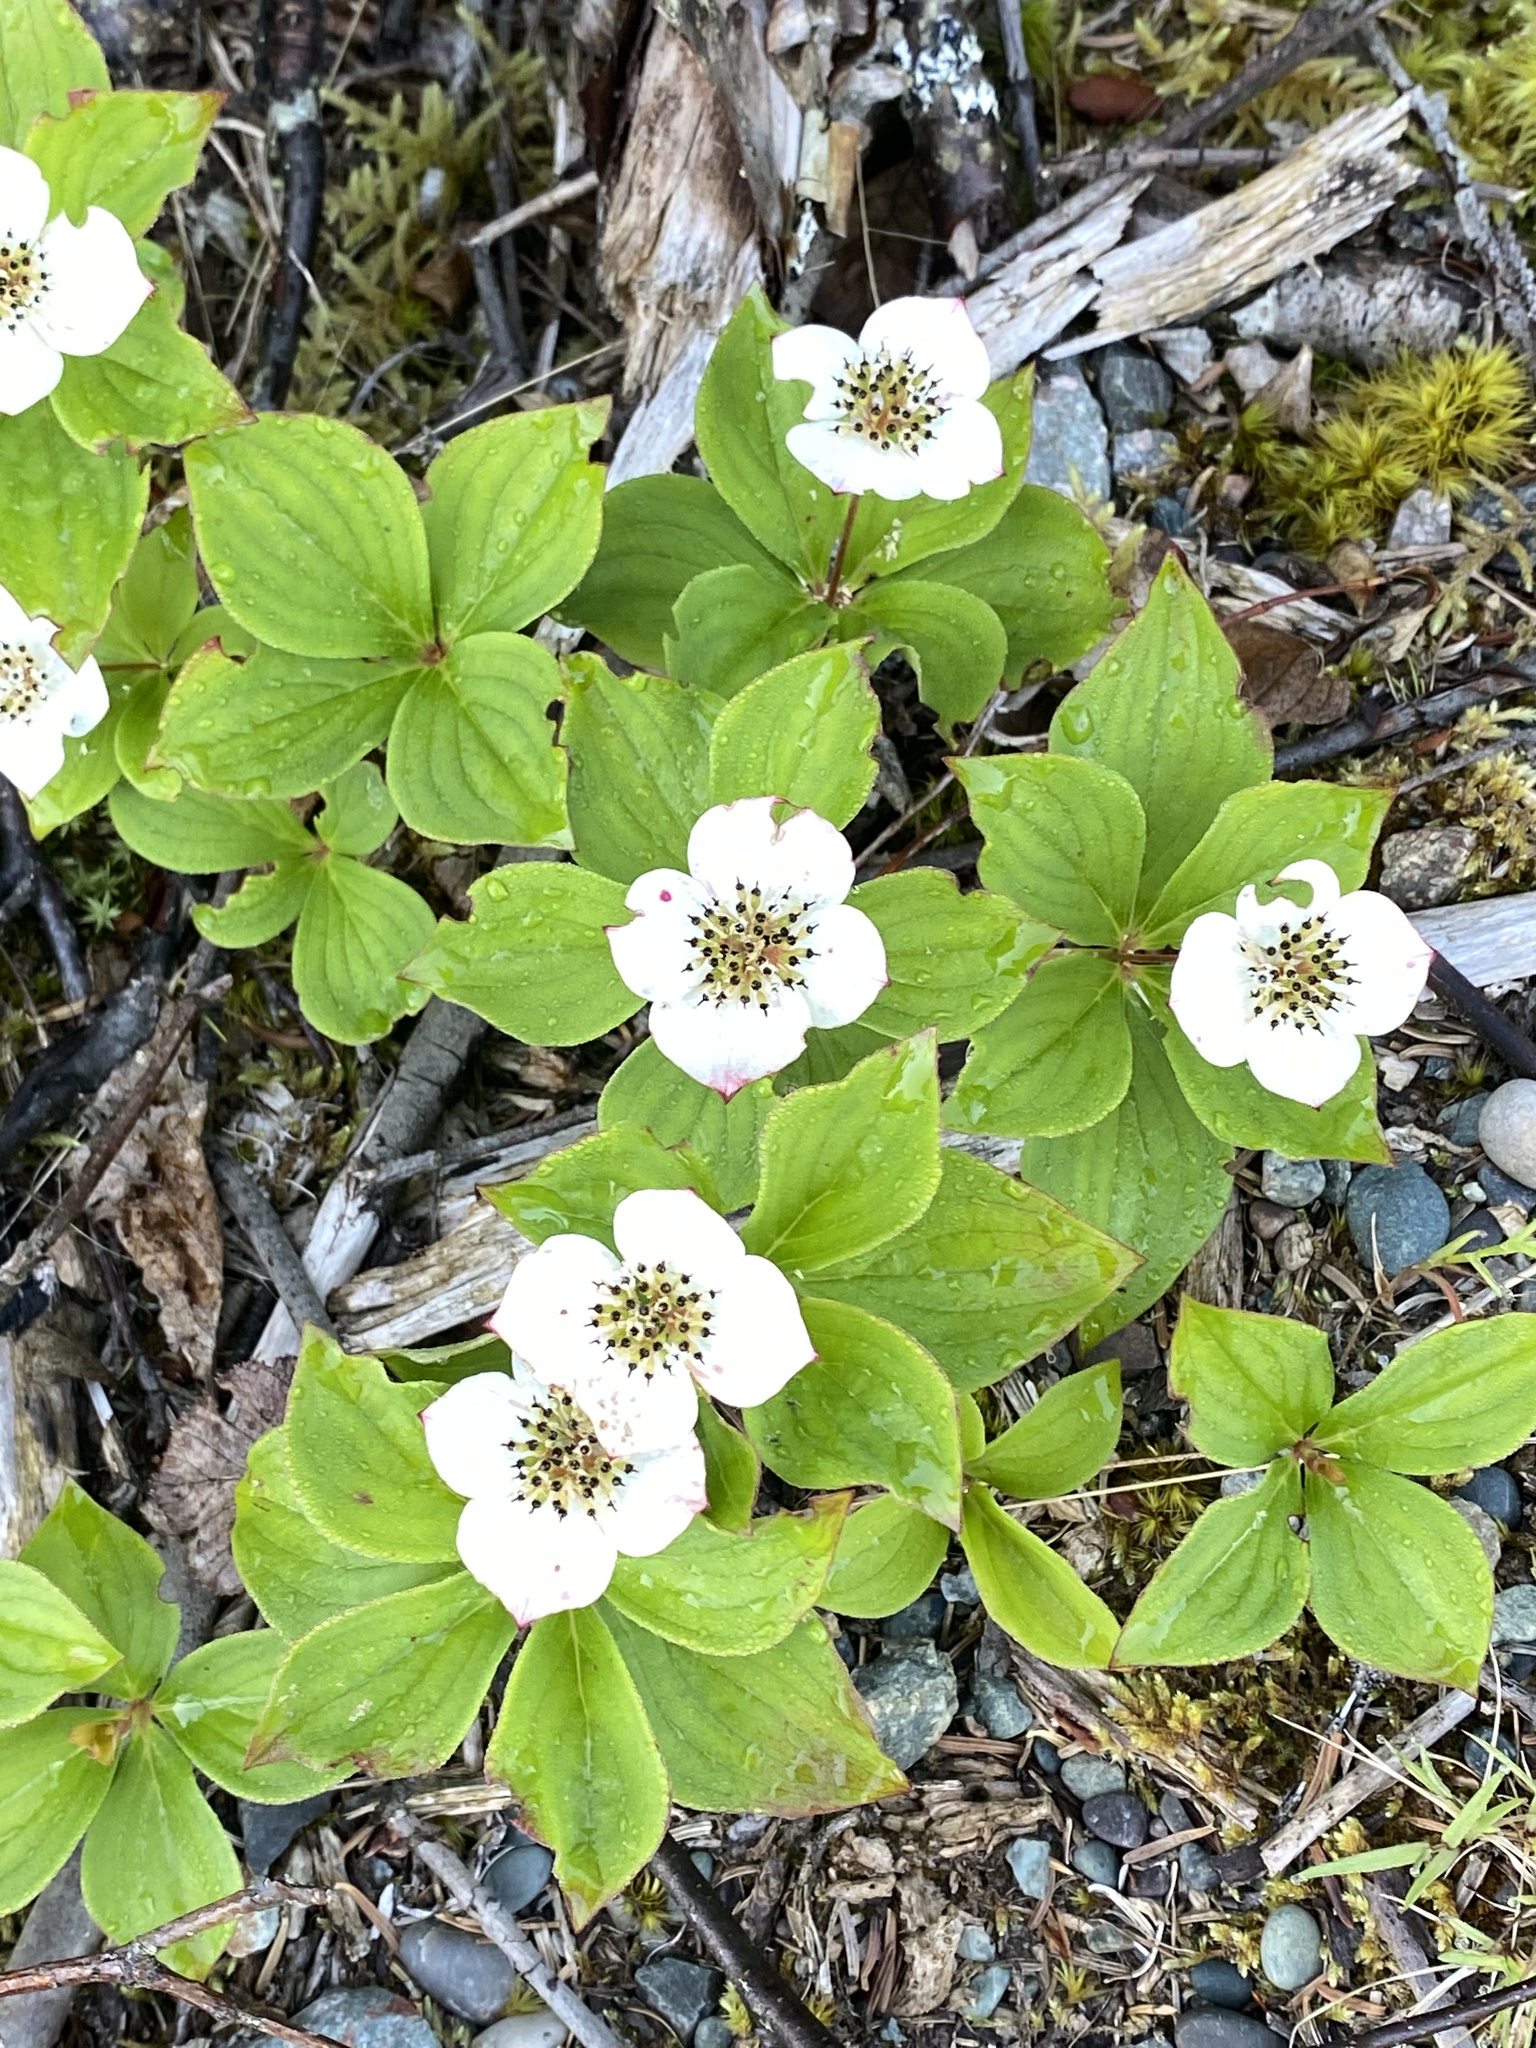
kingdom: Plantae
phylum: Tracheophyta
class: Magnoliopsida
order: Cornales
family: Cornaceae
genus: Cornus
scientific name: Cornus canadensis
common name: Creeping dogwood
